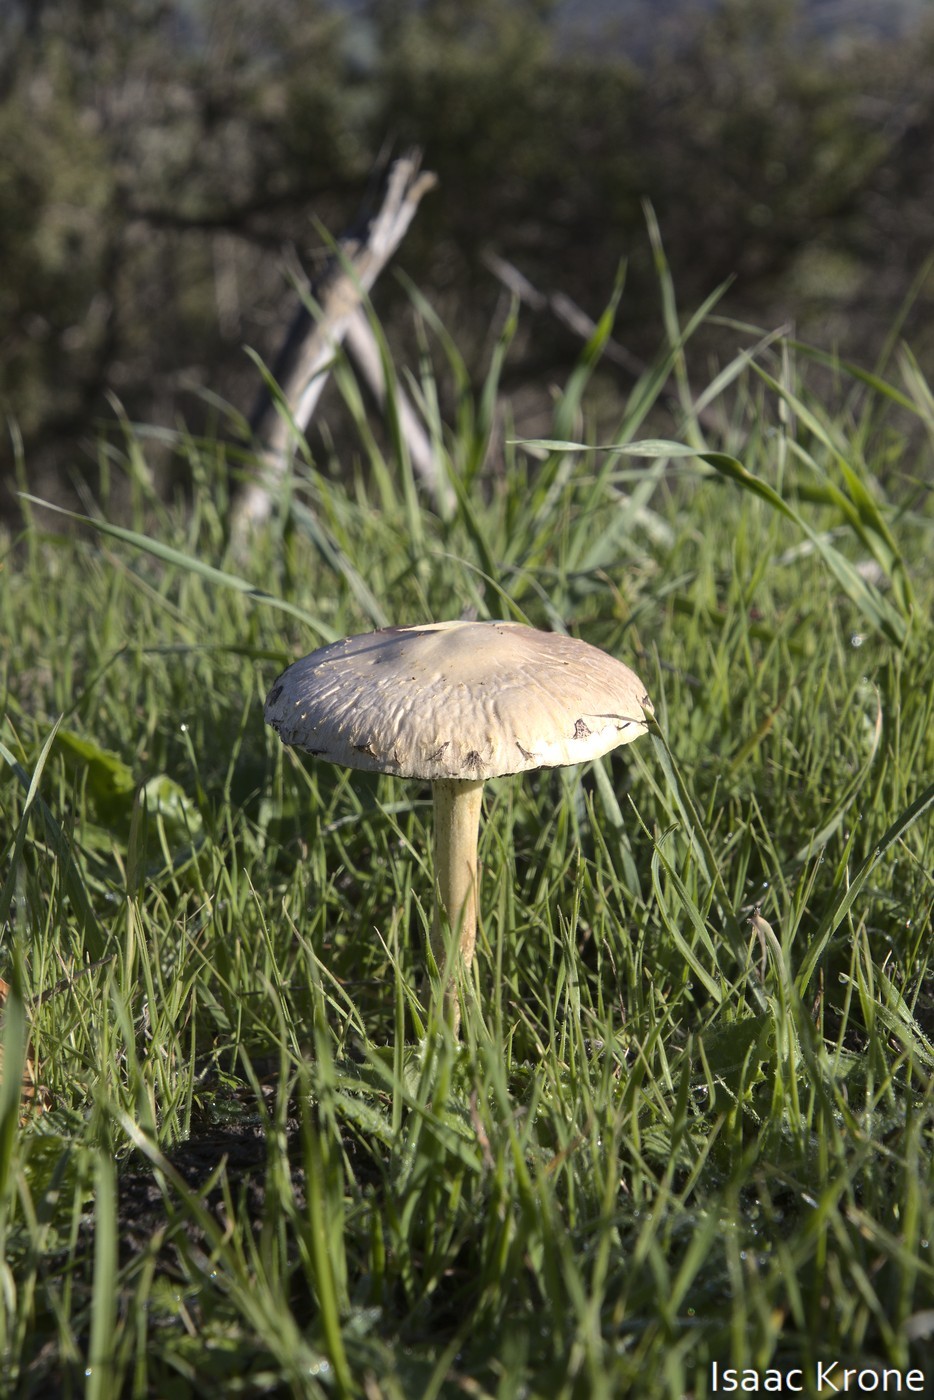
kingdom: Fungi
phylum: Basidiomycota
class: Agaricomycetes
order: Agaricales
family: Strophariaceae
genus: Leratiomyces
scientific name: Leratiomyces percevalii
